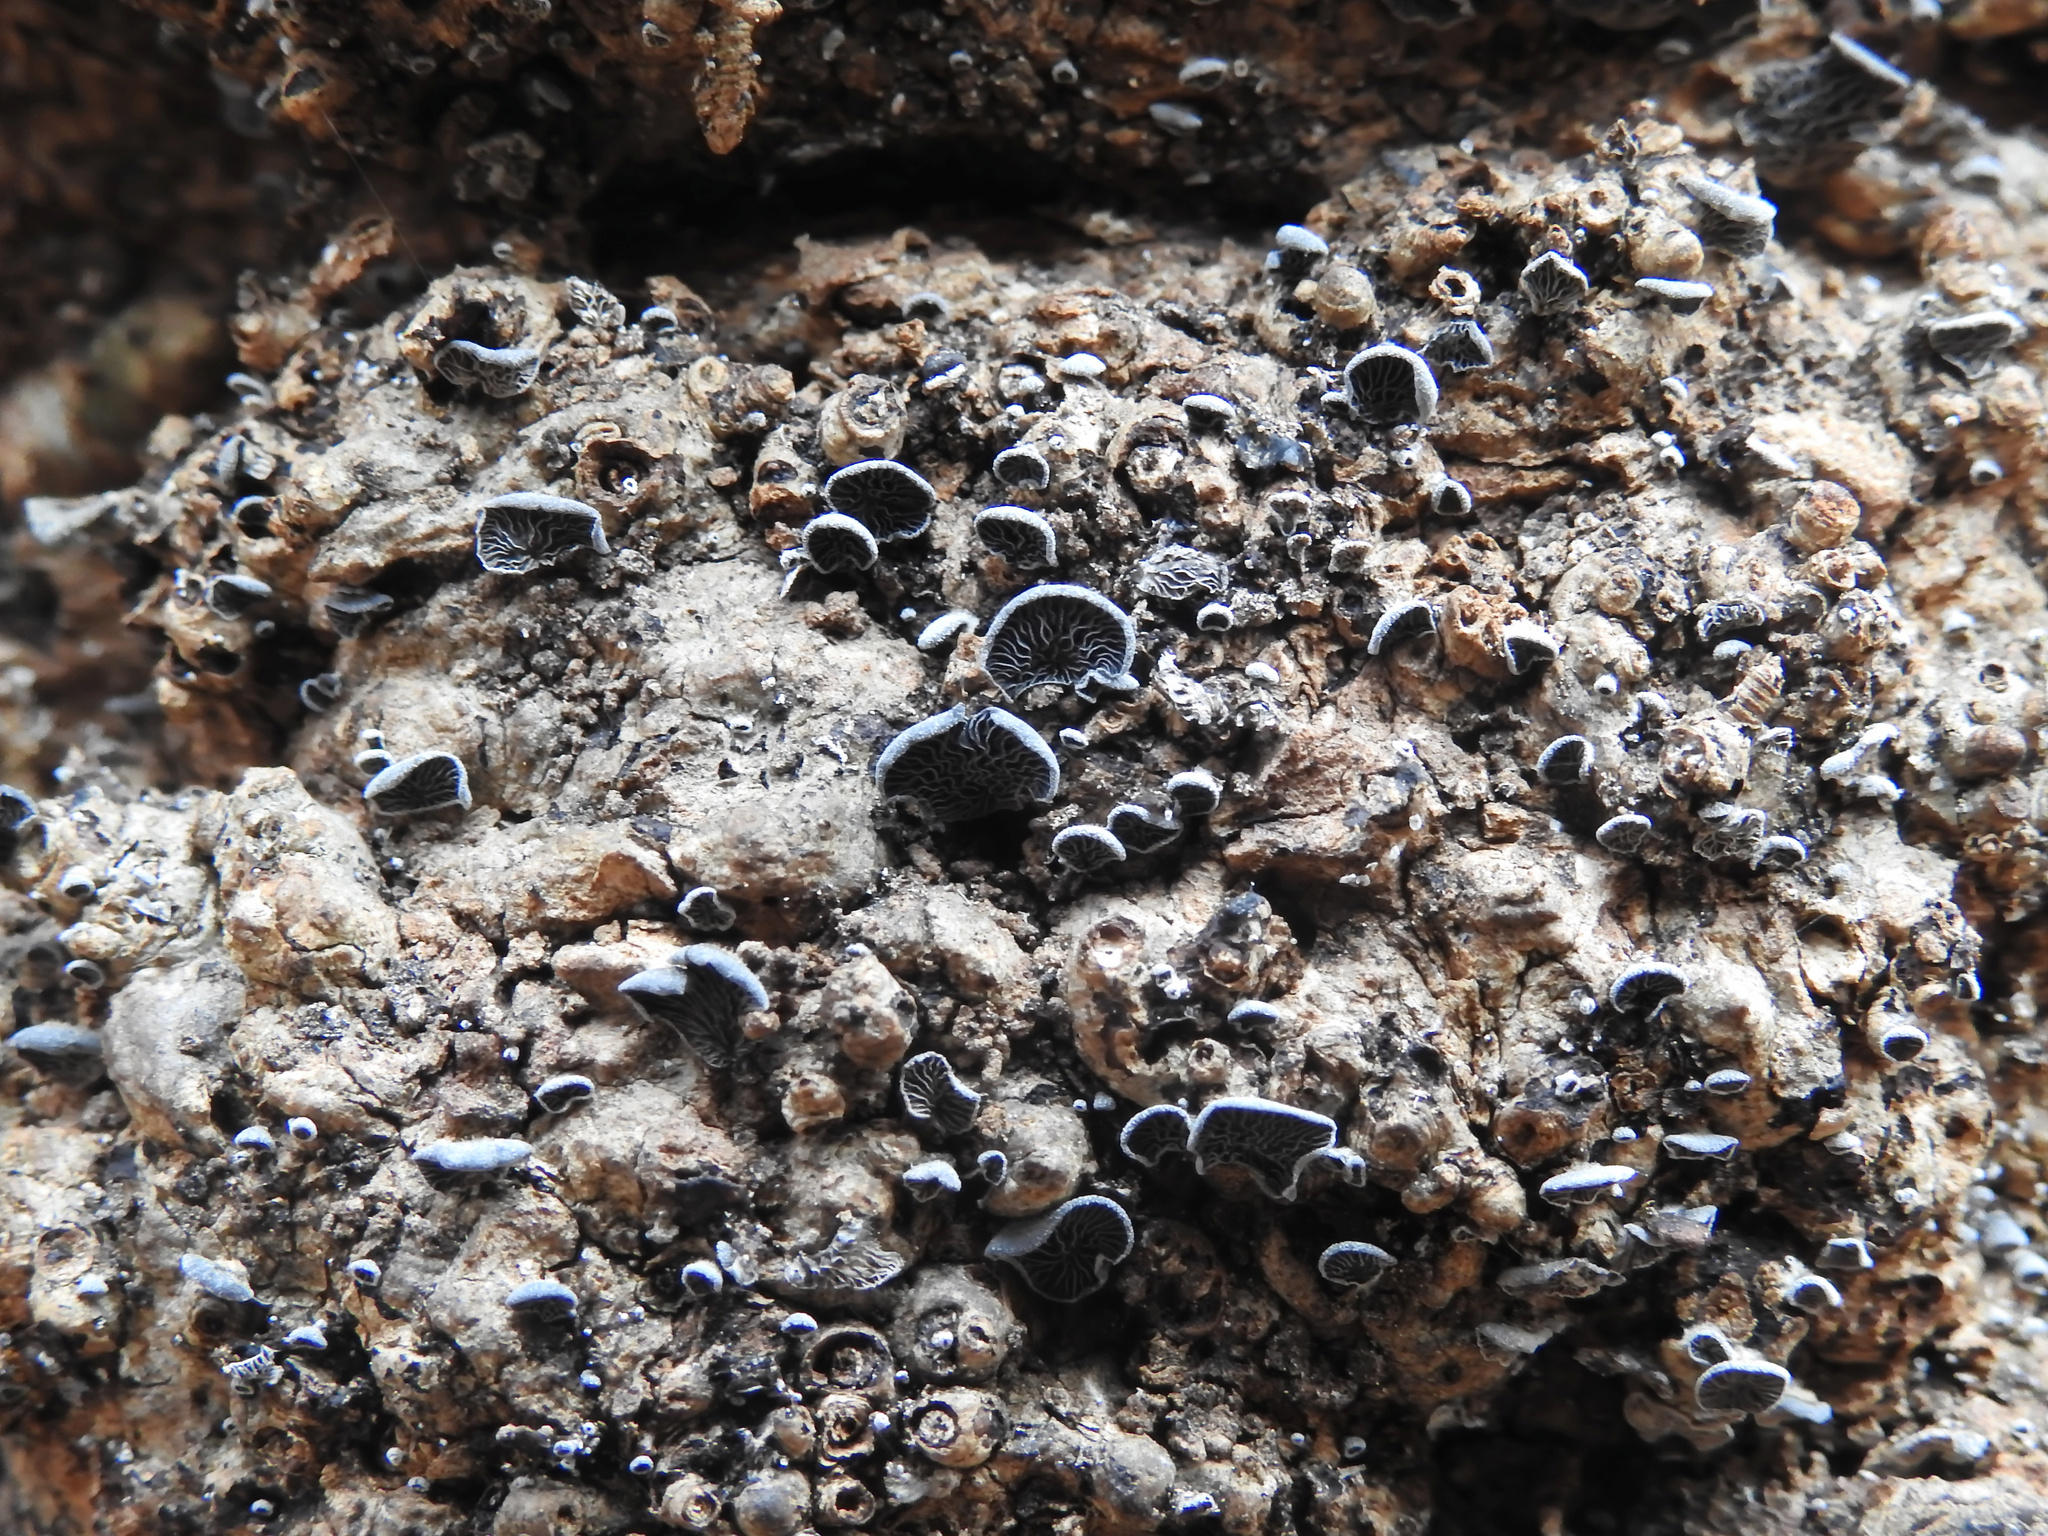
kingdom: Fungi
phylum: Basidiomycota
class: Agaricomycetes
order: Agaricales
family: Pleurotaceae
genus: Resupinatus
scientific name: Resupinatus applicatus
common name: Smoked oysterling
